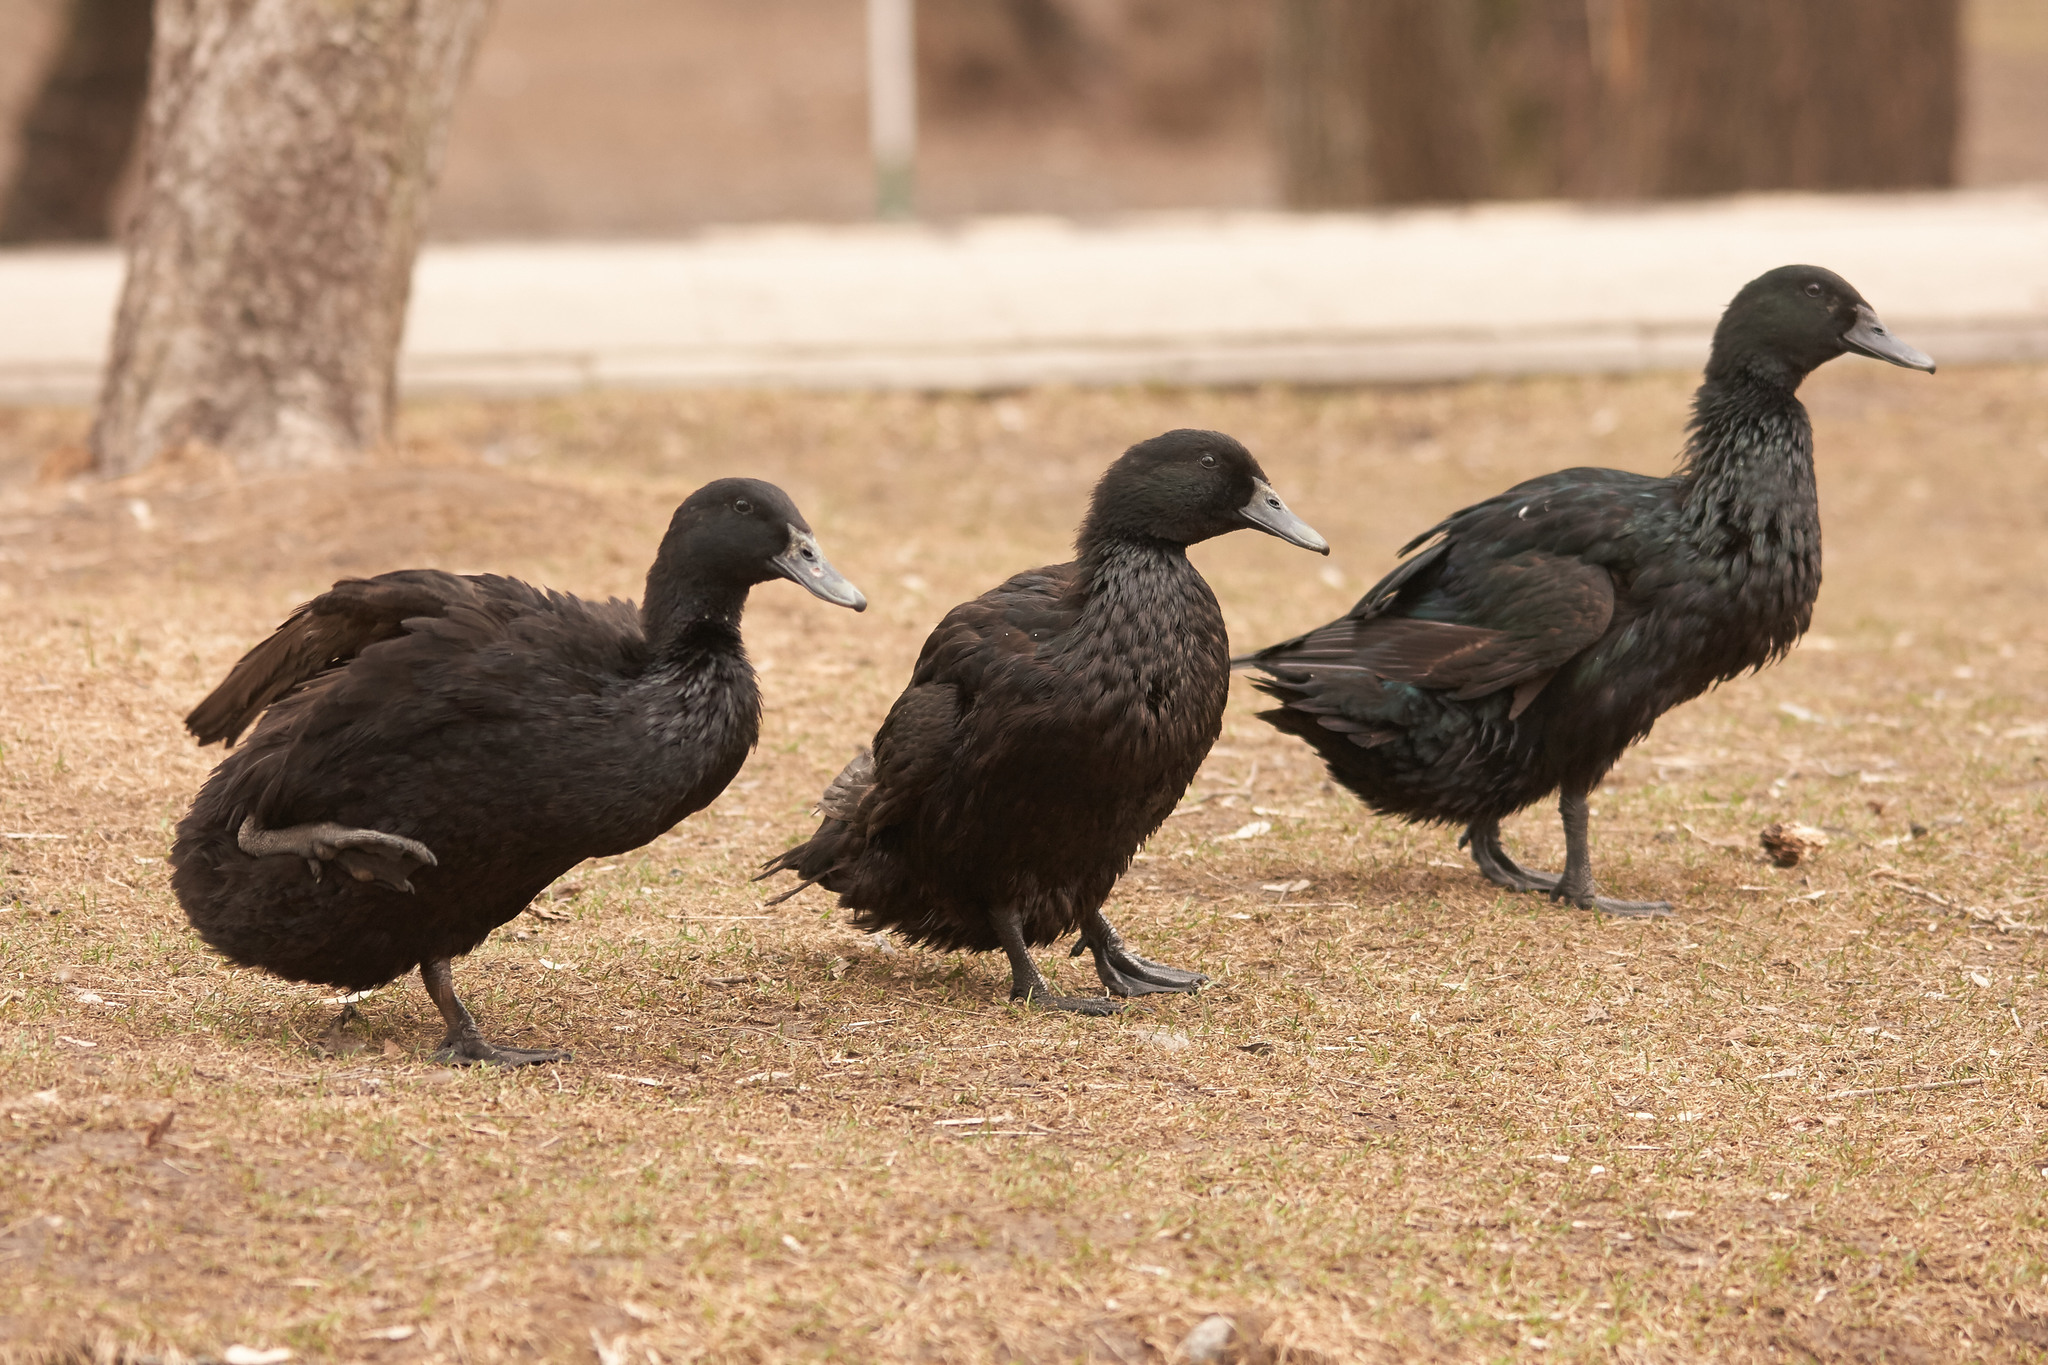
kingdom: Animalia
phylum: Chordata
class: Aves
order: Anseriformes
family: Anatidae
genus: Anas
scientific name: Anas platyrhynchos
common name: Mallard
